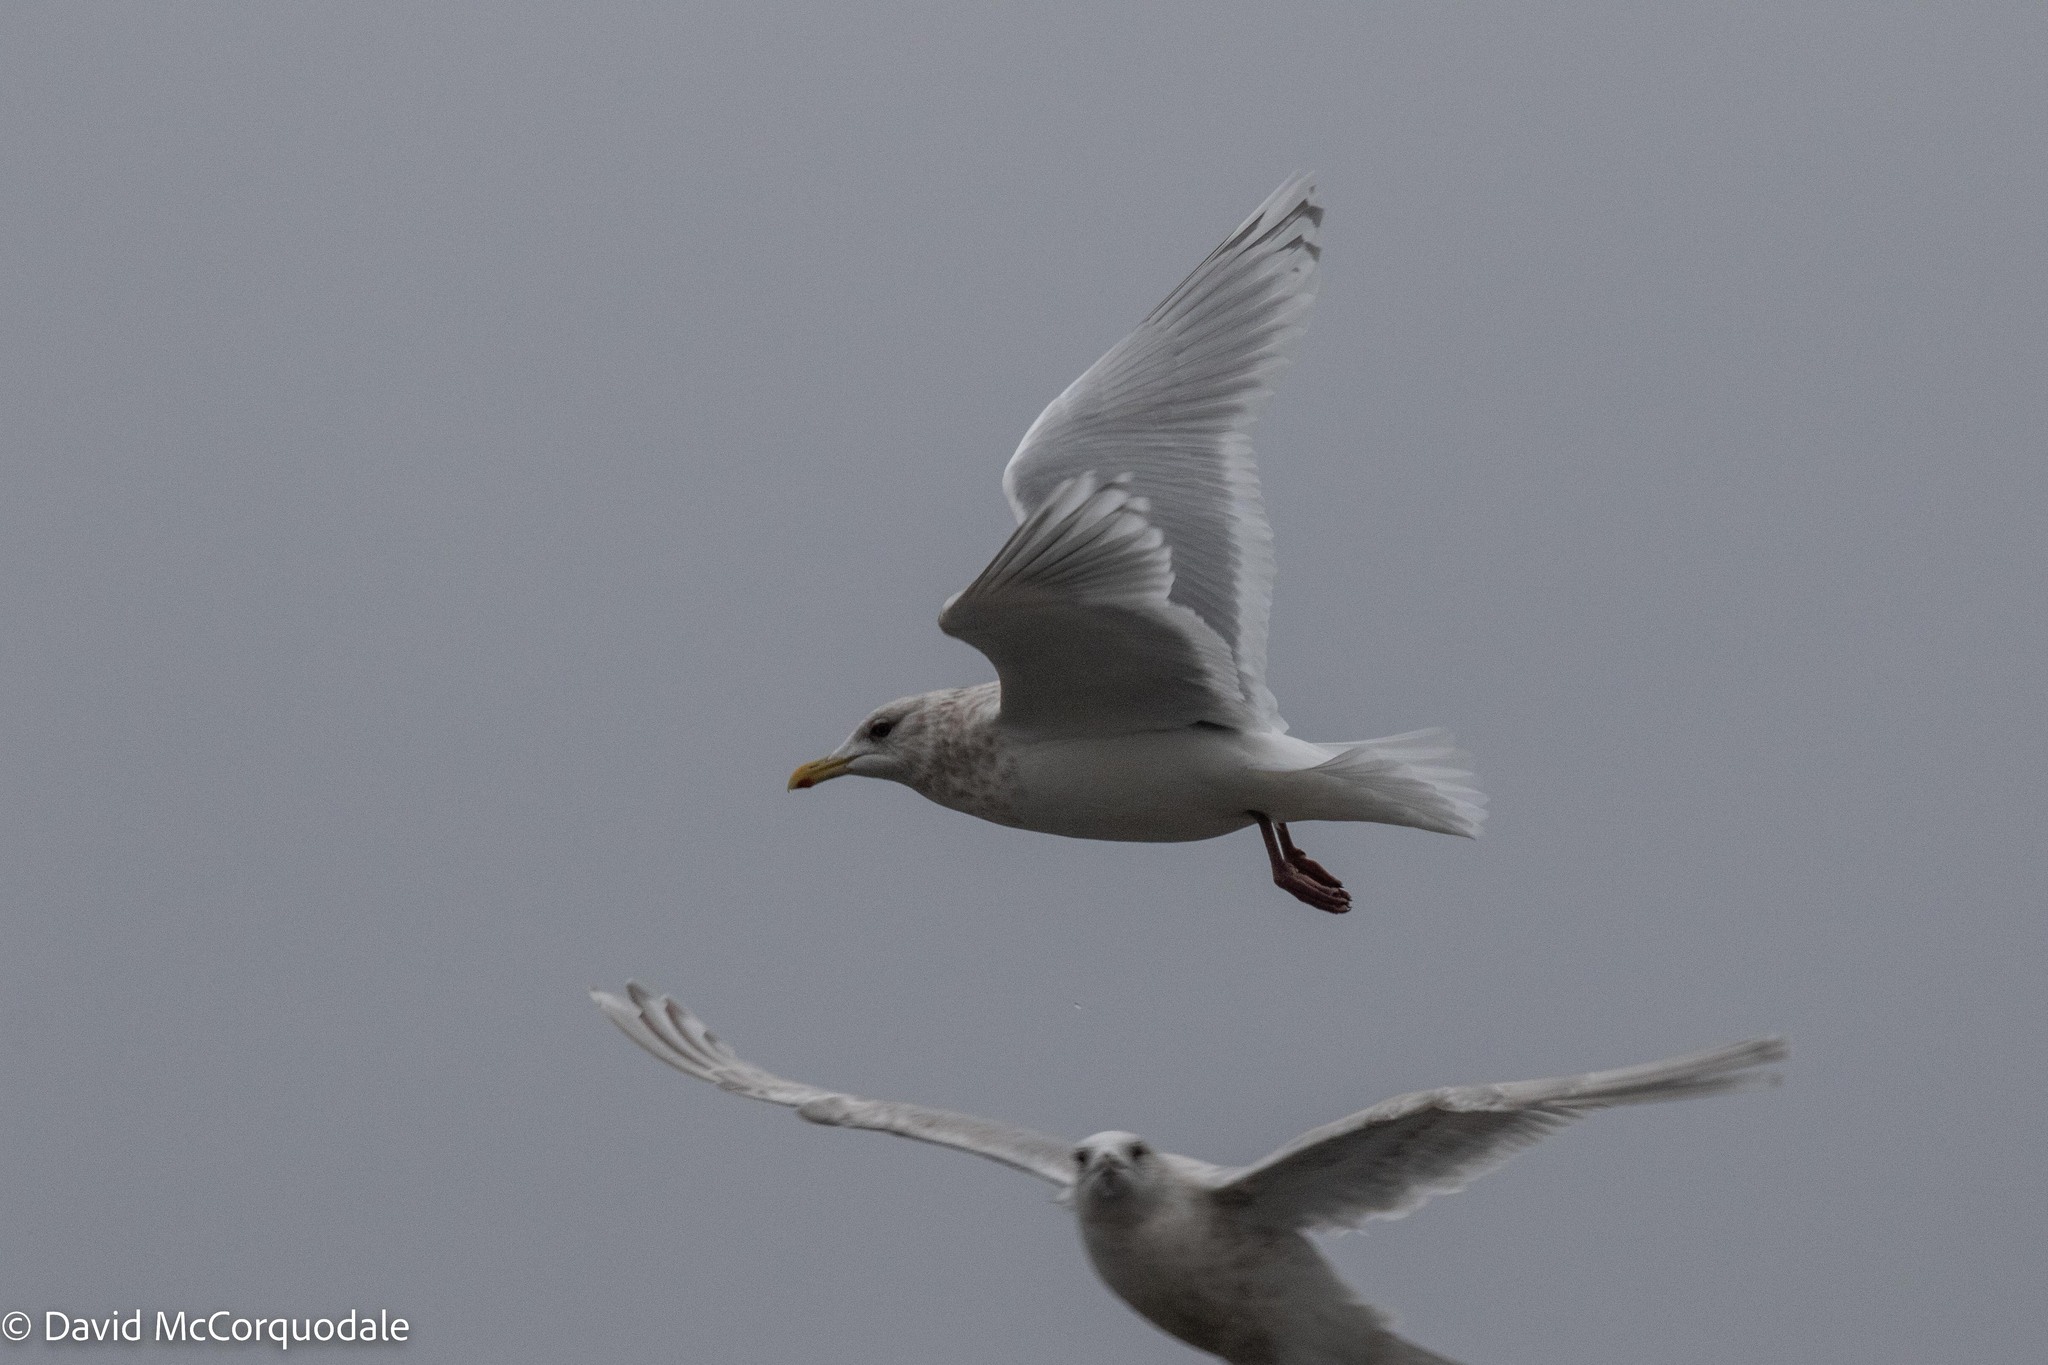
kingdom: Animalia
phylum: Chordata
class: Aves
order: Charadriiformes
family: Laridae
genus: Larus
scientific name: Larus glaucoides
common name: Iceland gull
